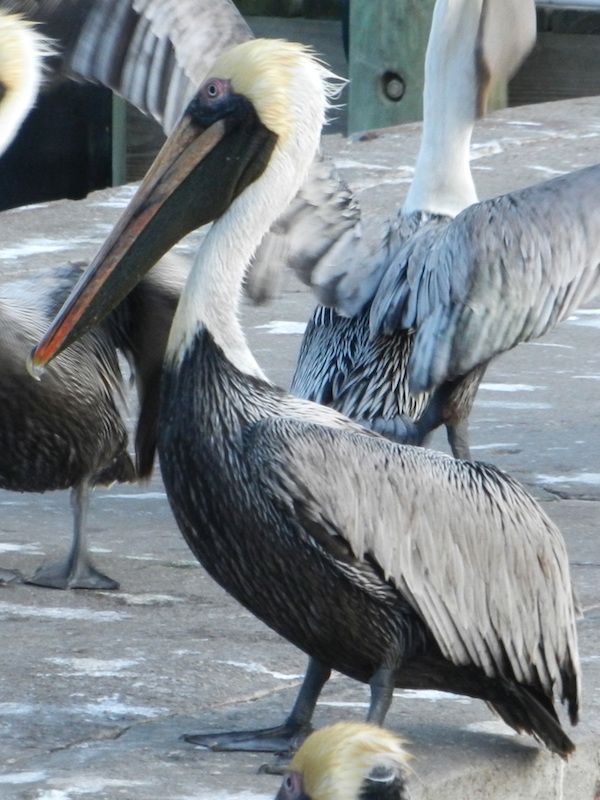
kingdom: Animalia
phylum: Chordata
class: Aves
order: Pelecaniformes
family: Pelecanidae
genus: Pelecanus
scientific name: Pelecanus occidentalis
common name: Brown pelican
